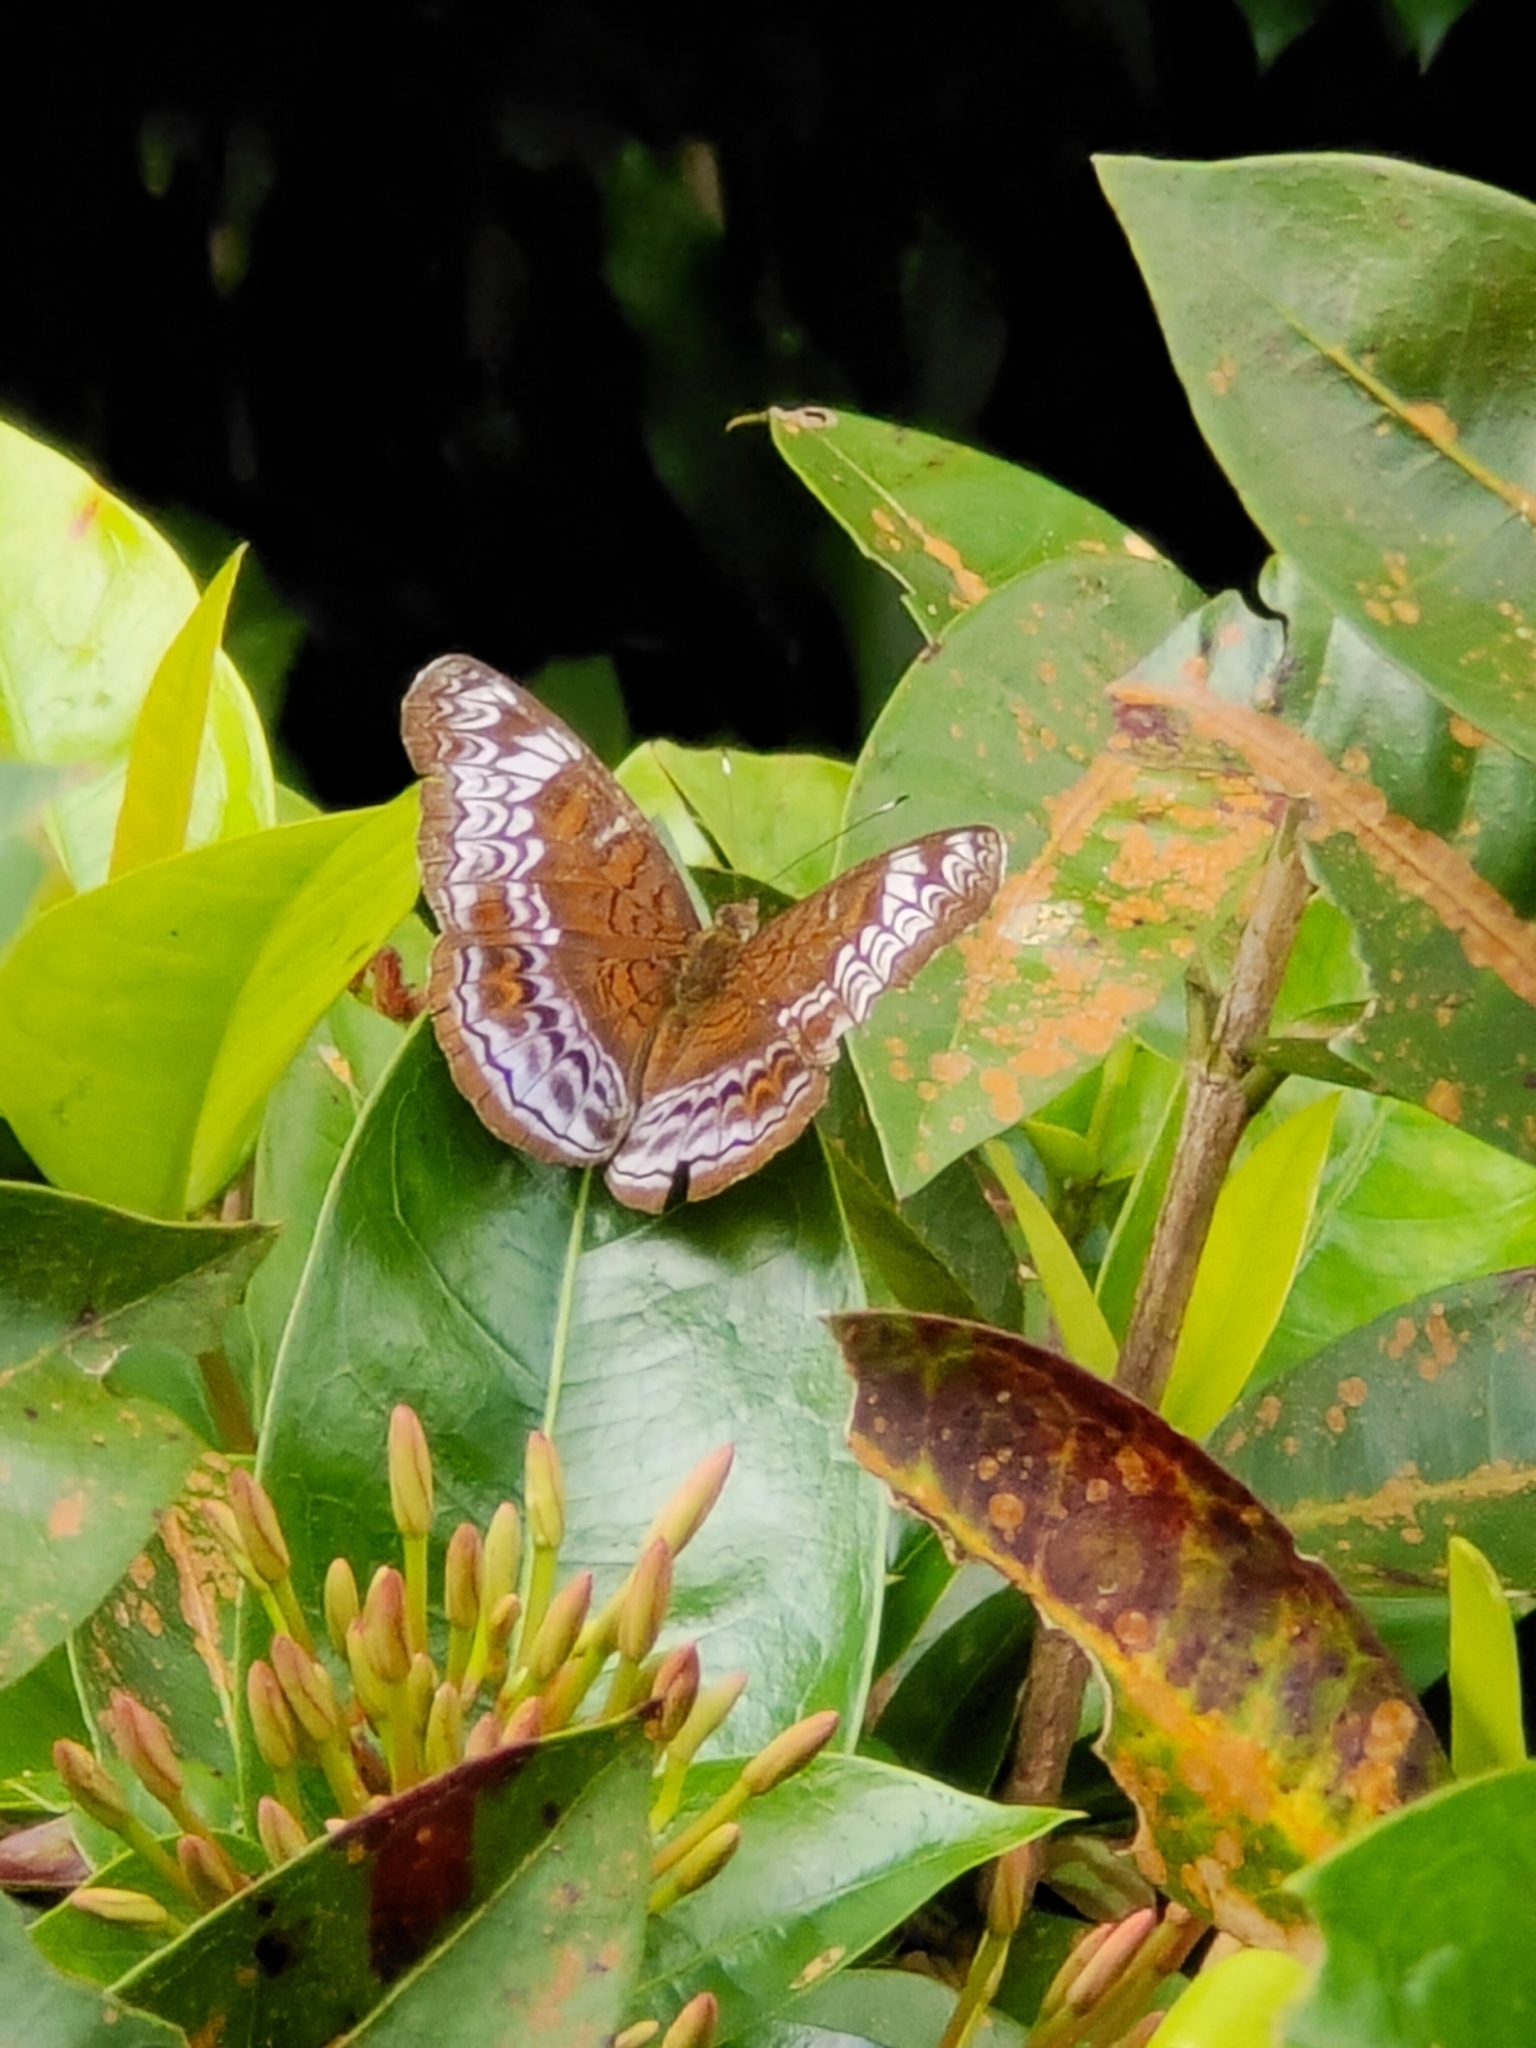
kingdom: Animalia
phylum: Arthropoda
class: Insecta
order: Lepidoptera
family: Nymphalidae
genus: Lebadea
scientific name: Lebadea martha
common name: Knight
